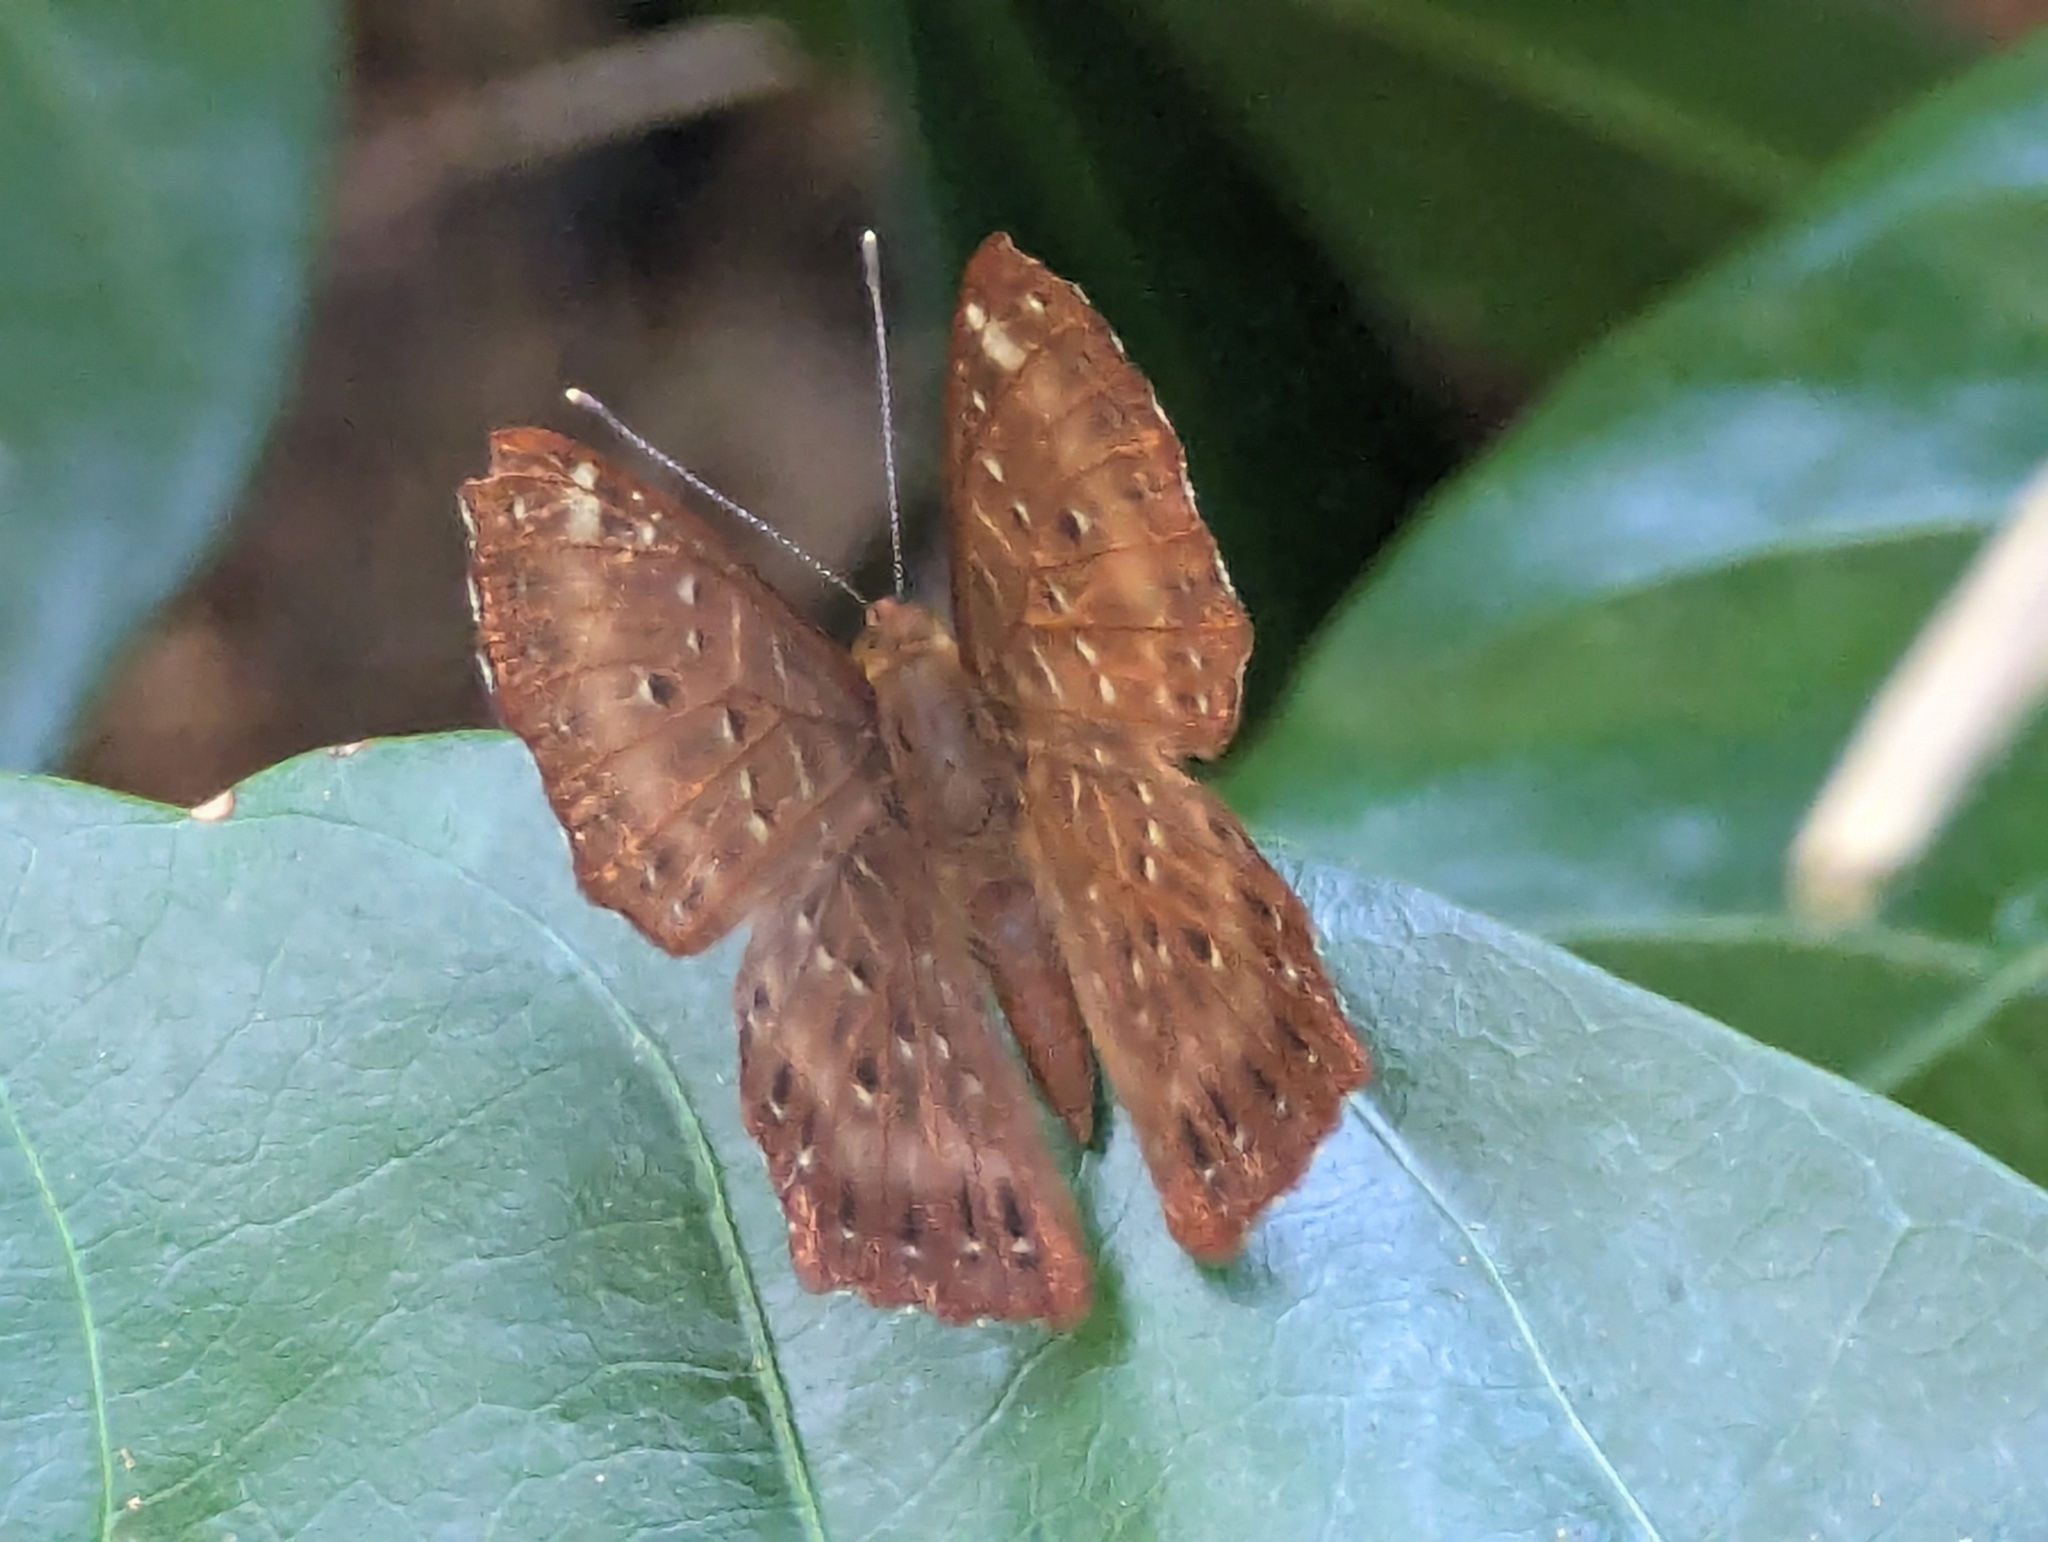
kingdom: Animalia
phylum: Arthropoda
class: Insecta
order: Lepidoptera
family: Riodinidae
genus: Zemeros
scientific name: Zemeros flegyas
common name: Punchinello
